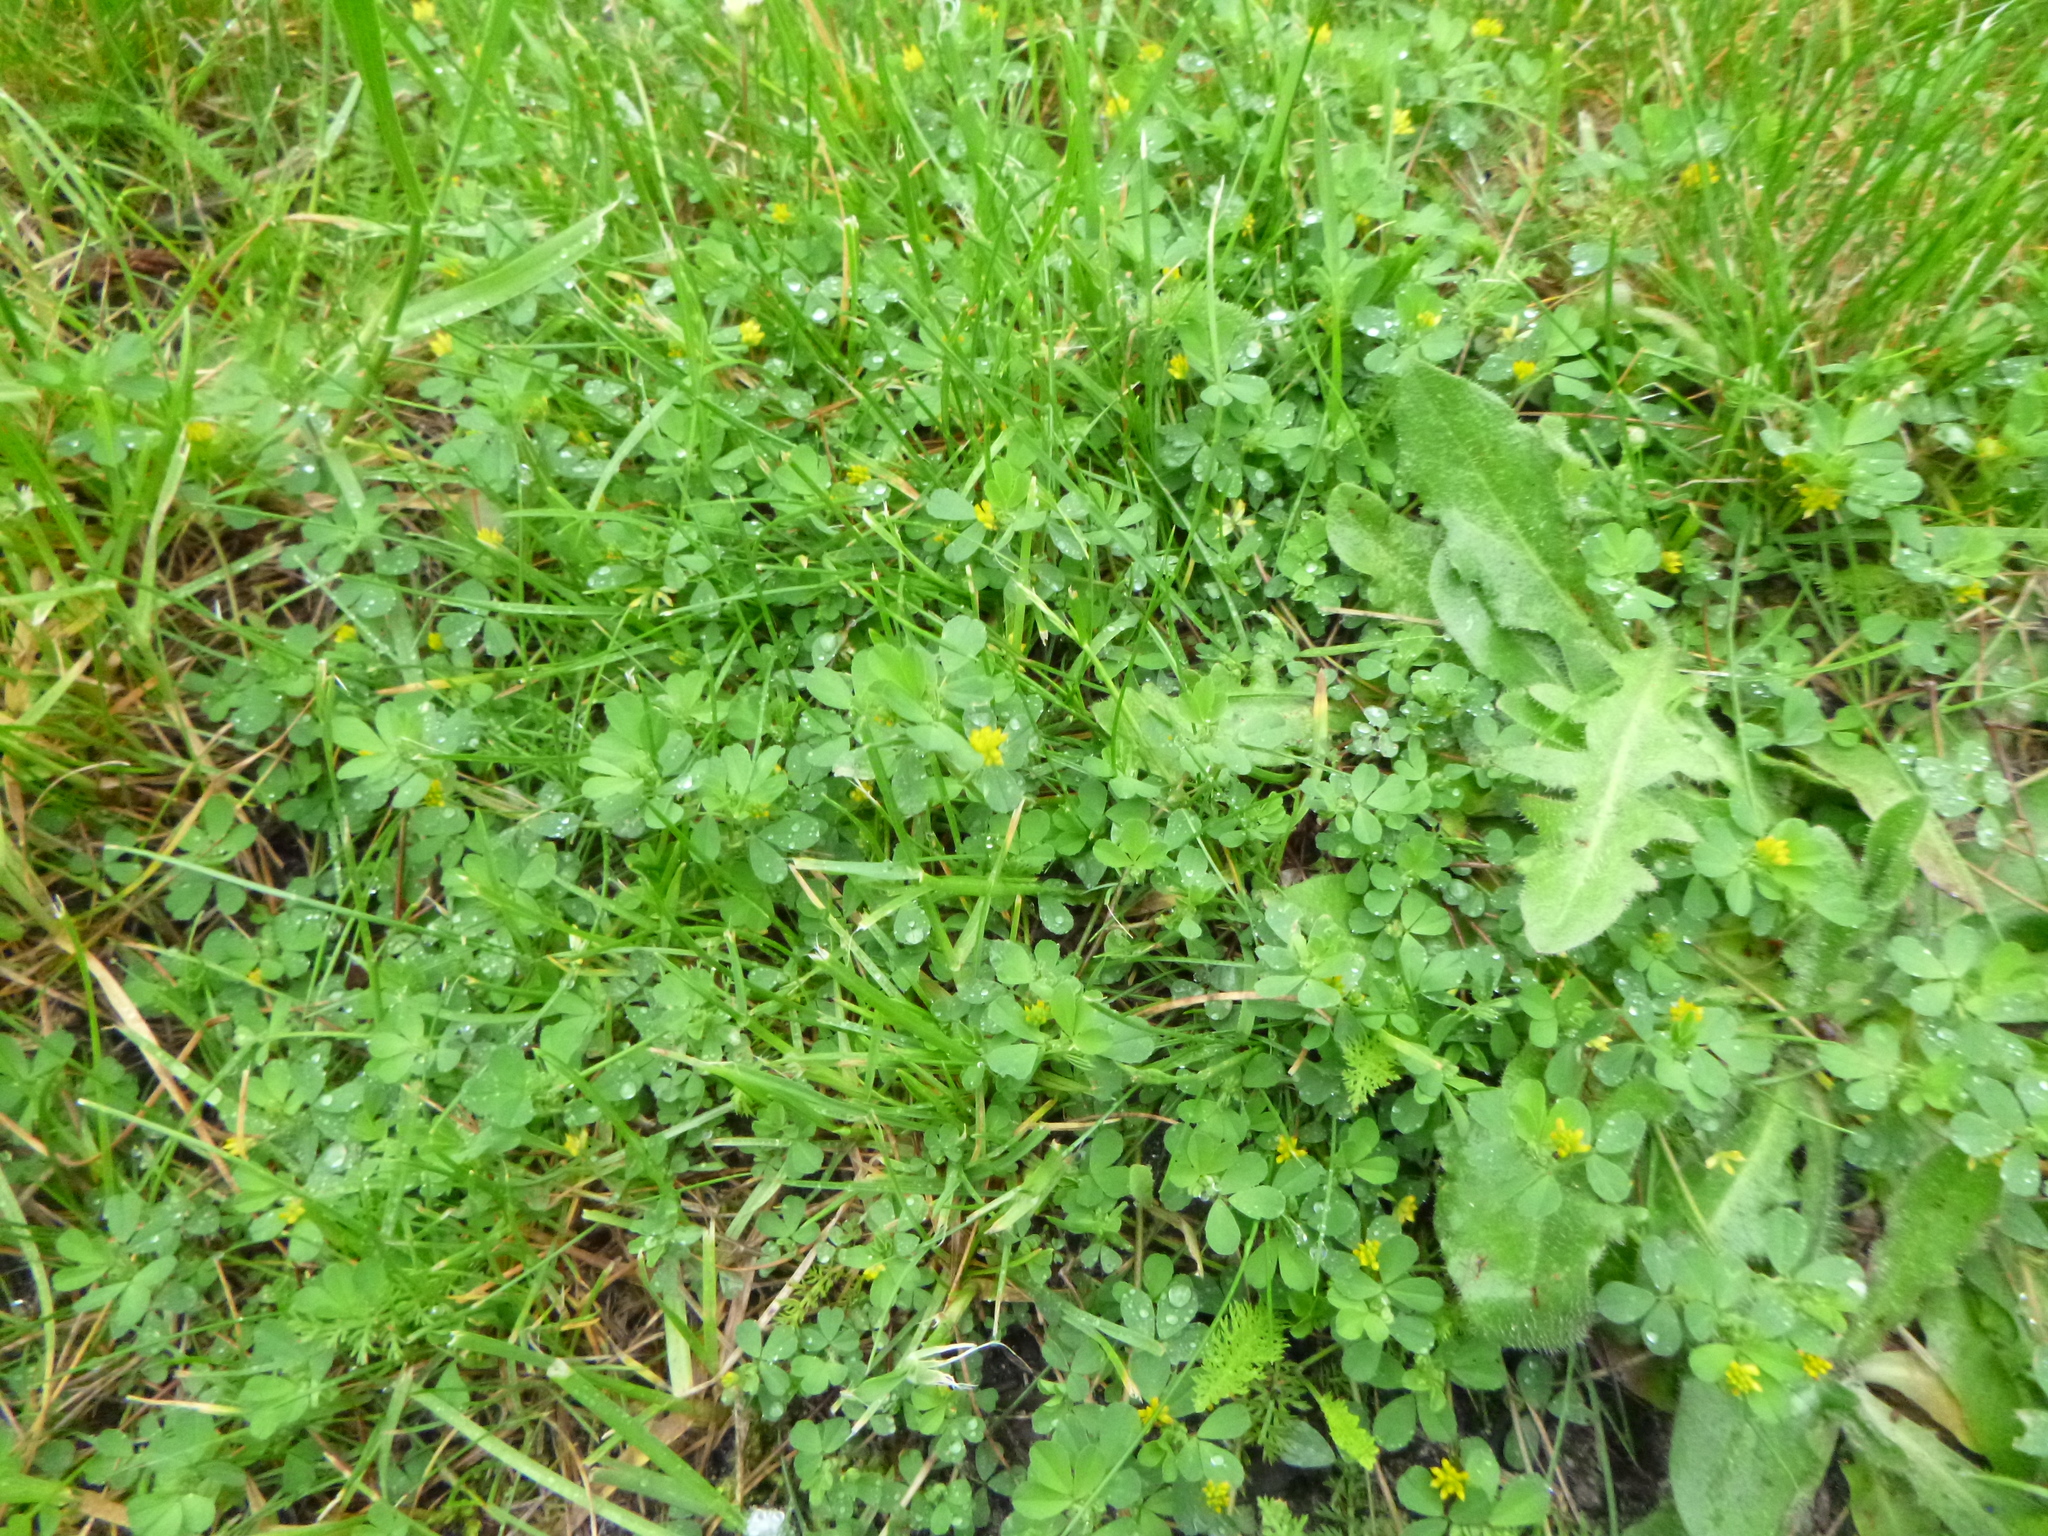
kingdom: Plantae
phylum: Tracheophyta
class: Magnoliopsida
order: Fabales
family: Fabaceae
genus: Trifolium
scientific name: Trifolium dubium
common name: Suckling clover
